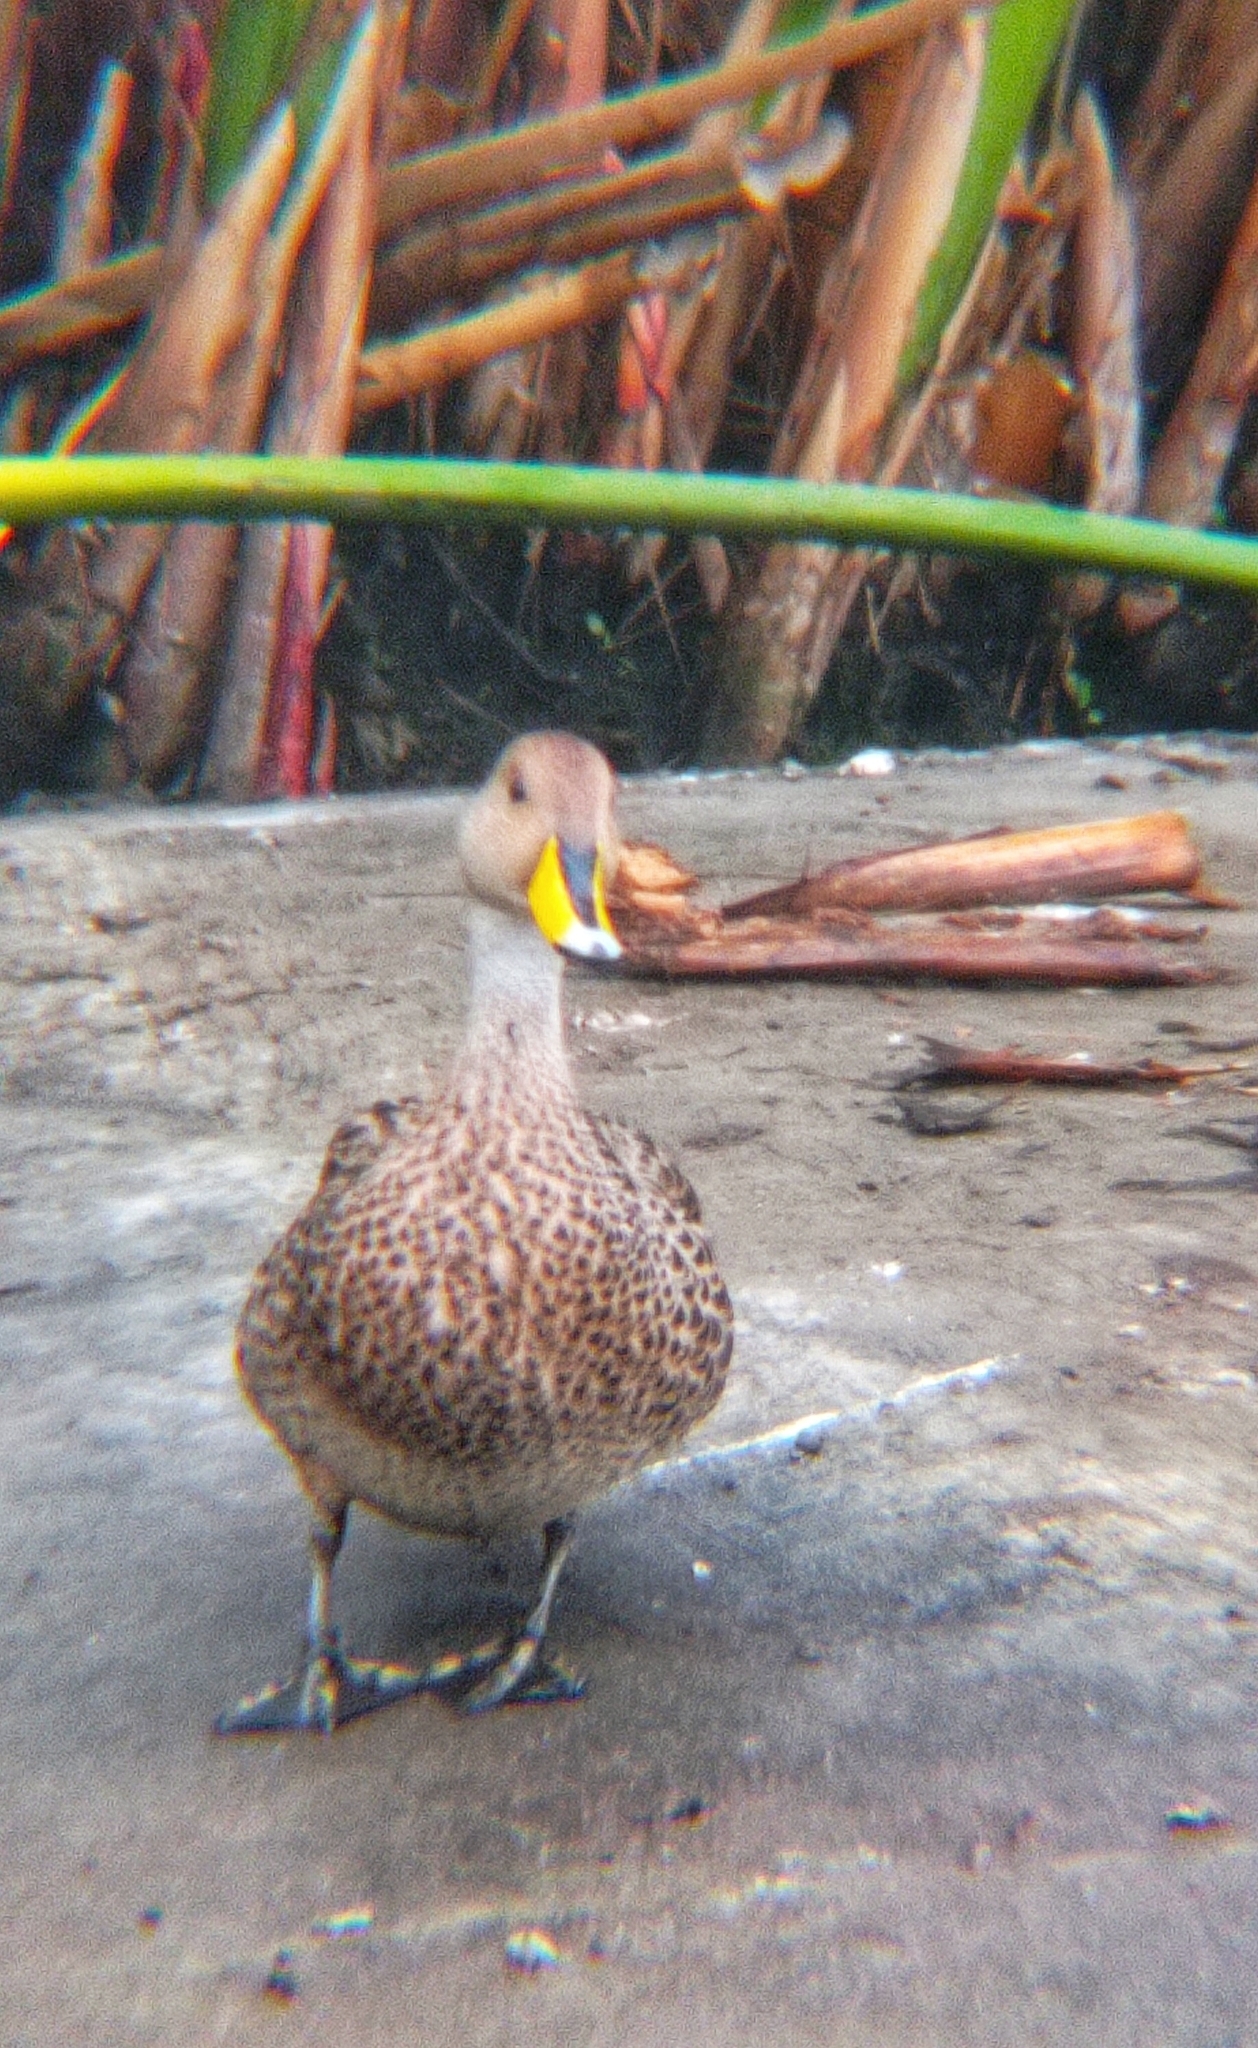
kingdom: Animalia
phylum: Chordata
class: Aves
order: Anseriformes
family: Anatidae
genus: Anas
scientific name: Anas georgica
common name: Yellow-billed pintail
